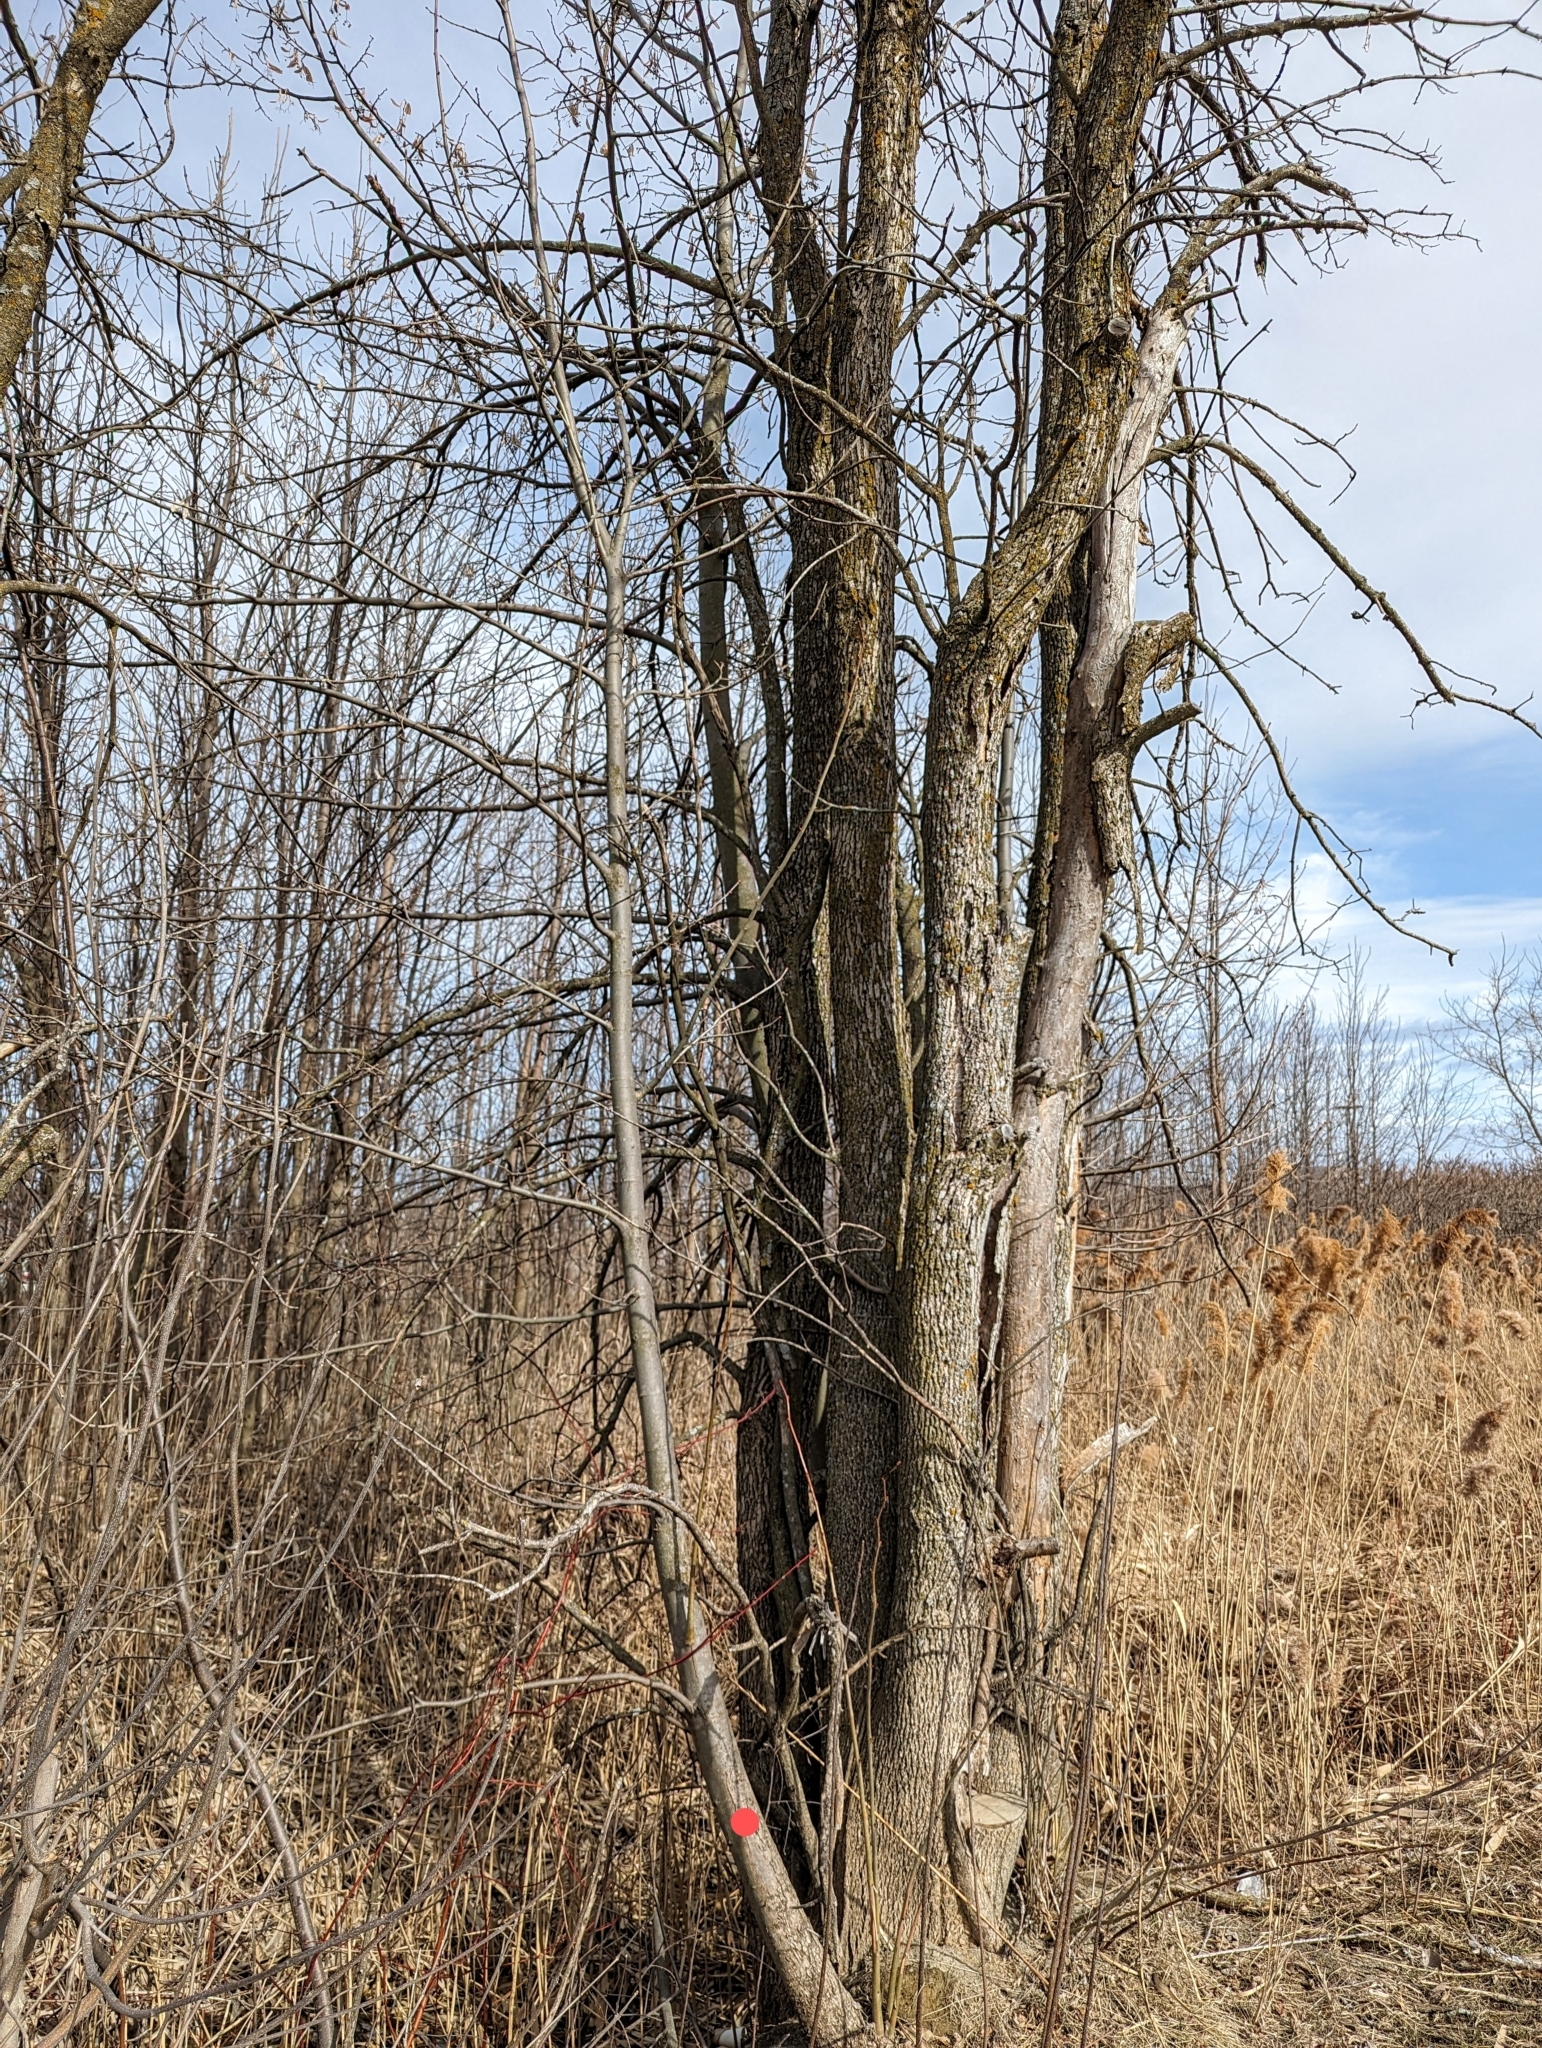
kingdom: Plantae
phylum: Tracheophyta
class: Magnoliopsida
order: Malvales
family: Malvaceae
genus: Tilia
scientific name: Tilia americana
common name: Basswood
